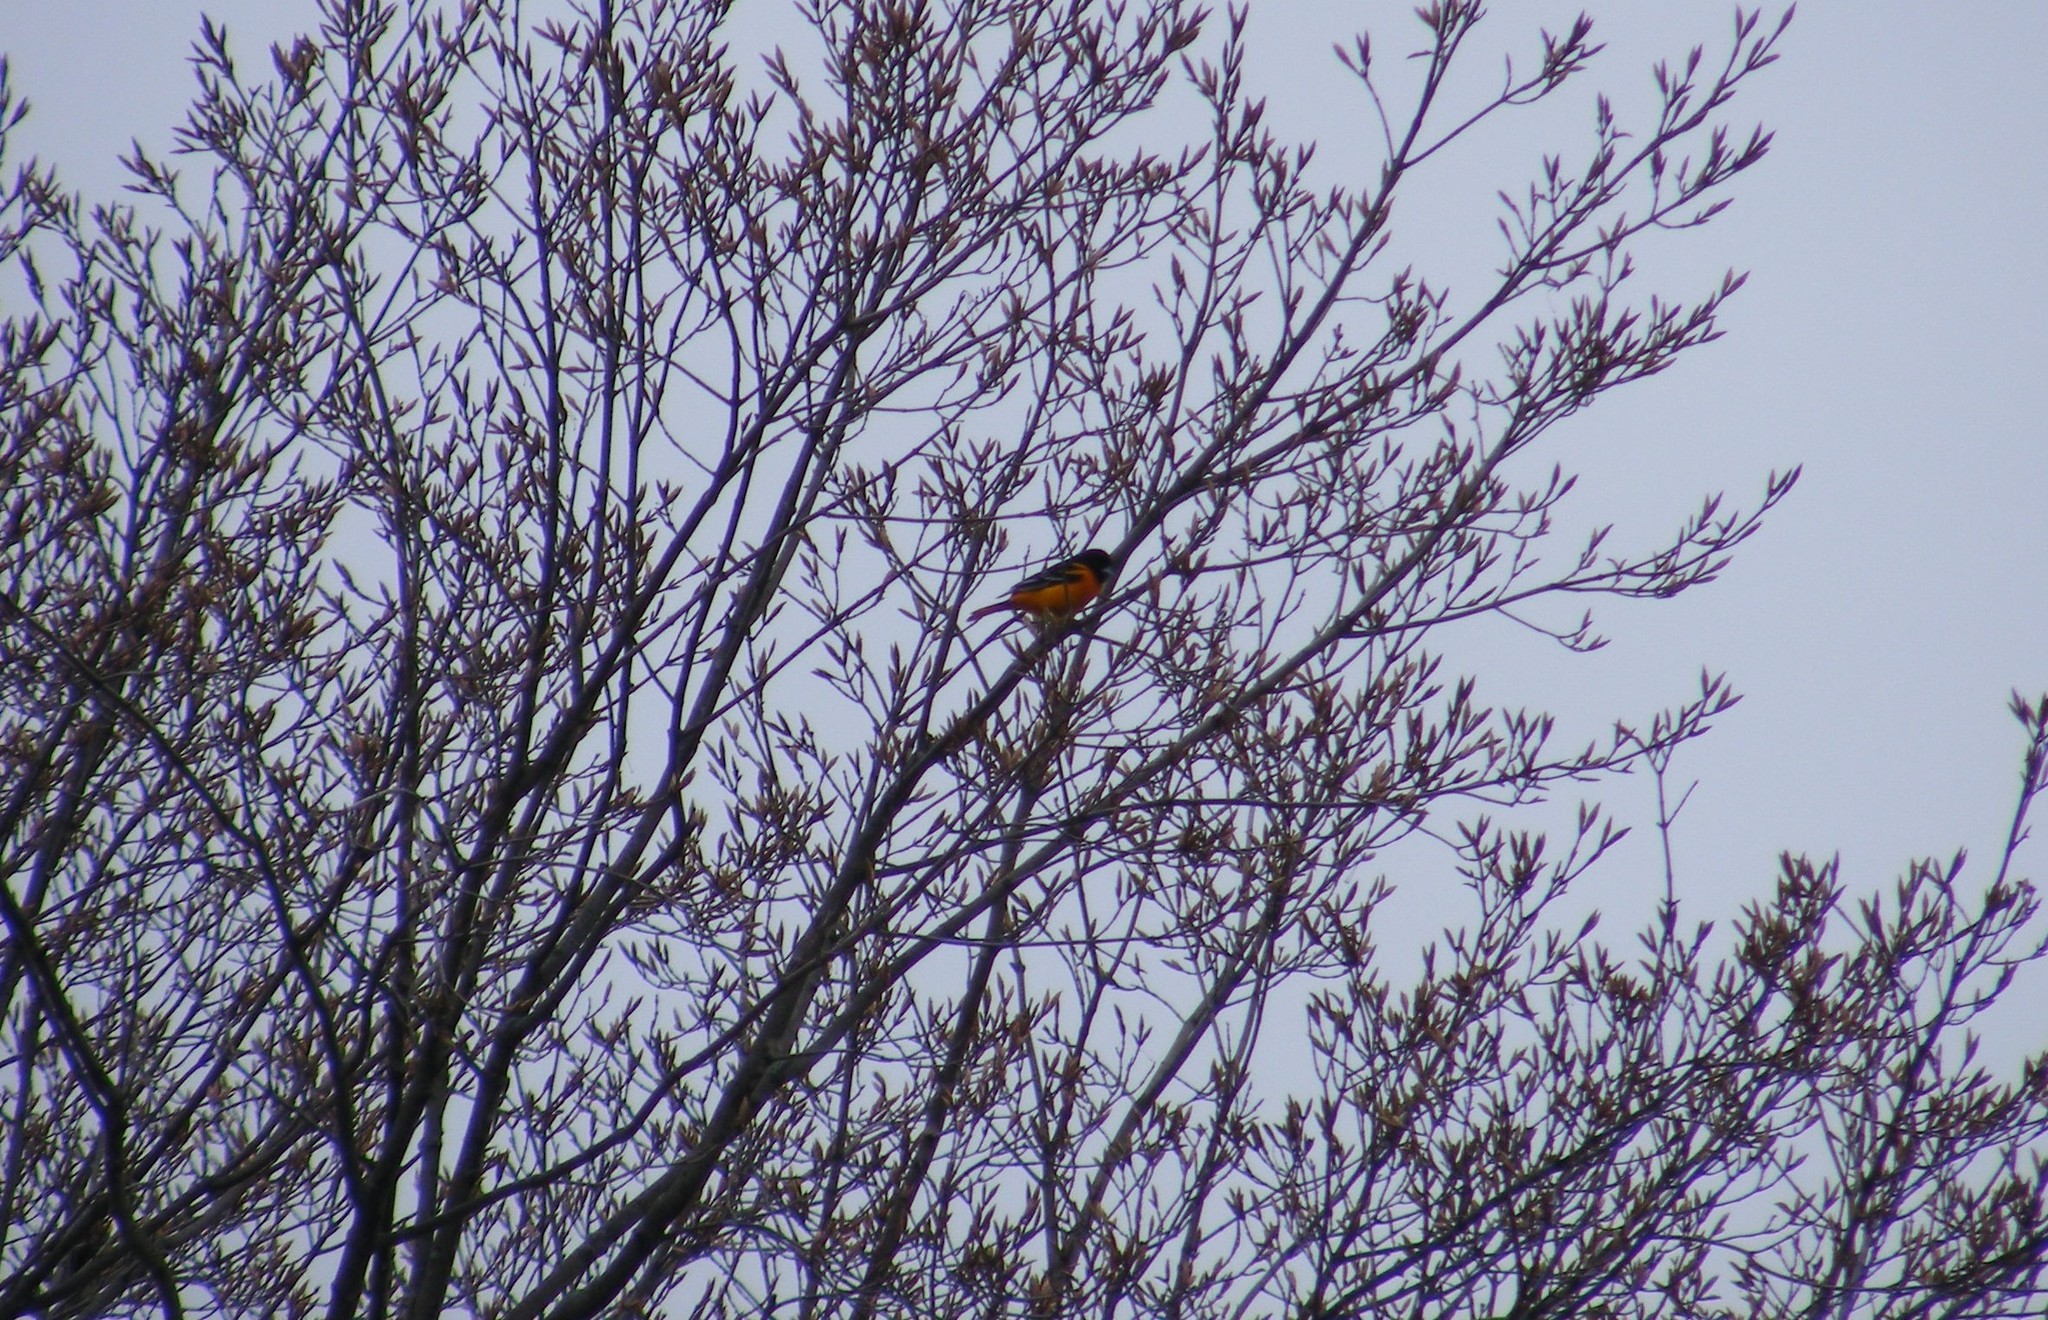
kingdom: Animalia
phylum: Chordata
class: Aves
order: Passeriformes
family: Icteridae
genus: Icterus
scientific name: Icterus galbula
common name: Baltimore oriole
